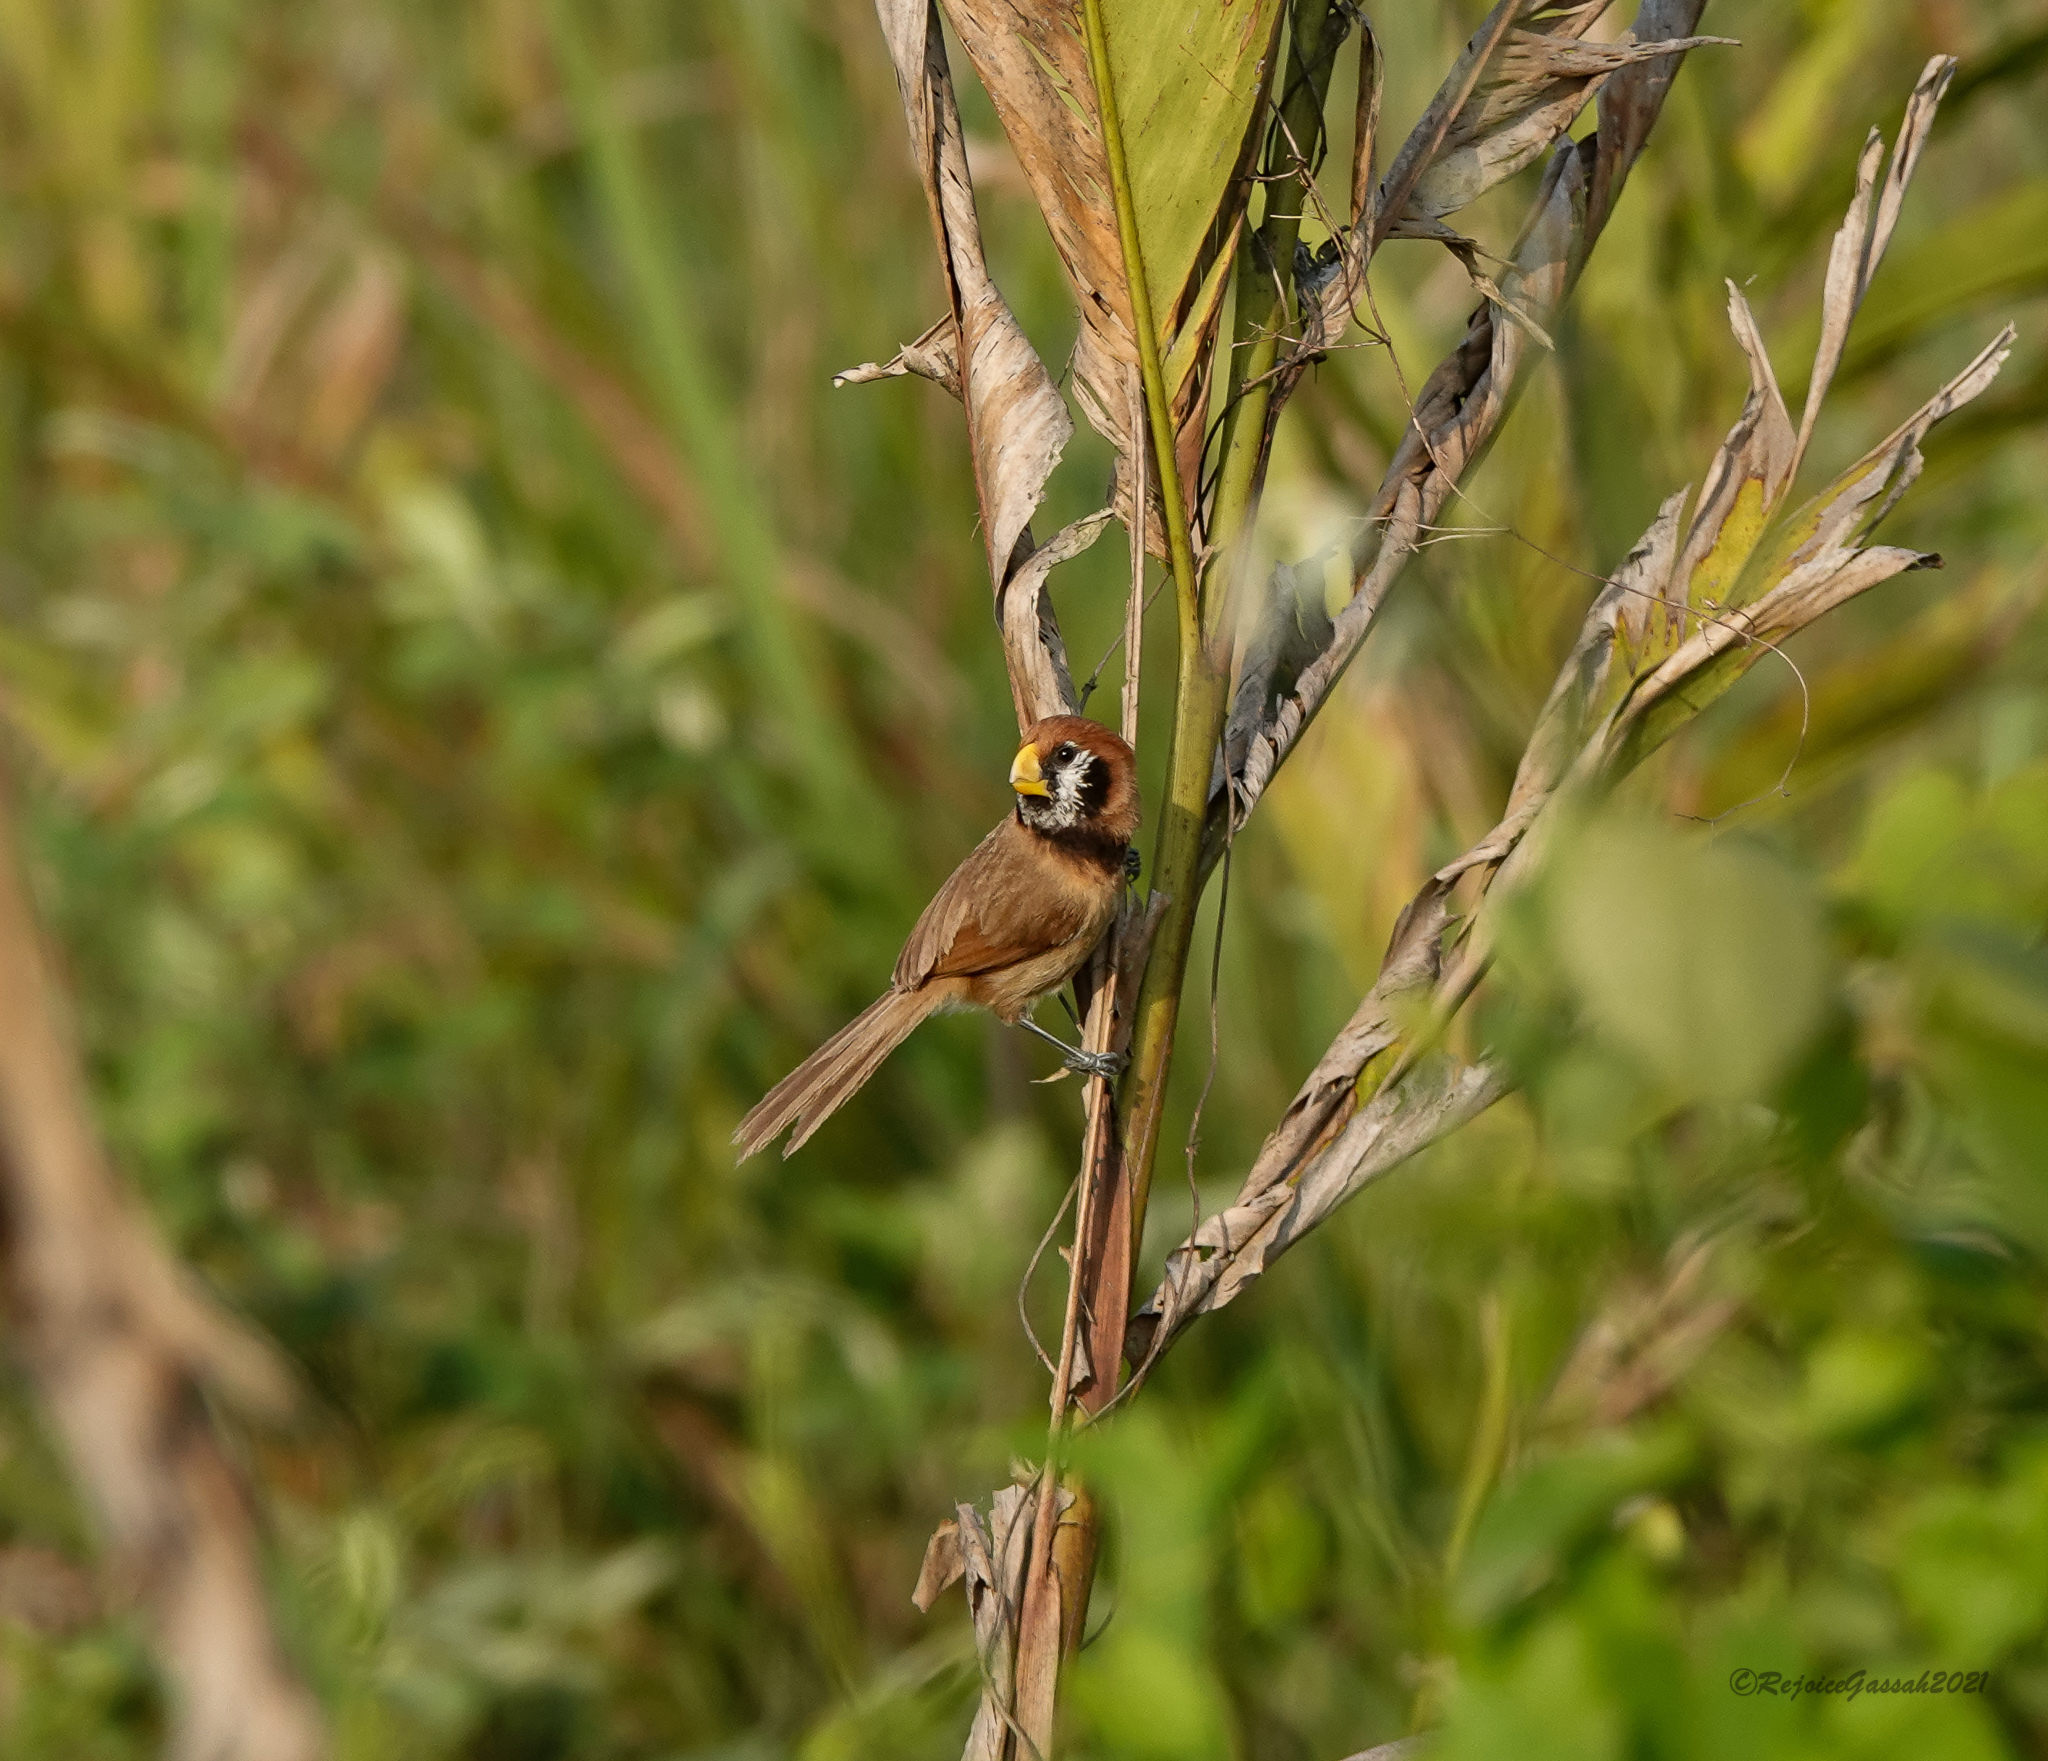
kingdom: Animalia
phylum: Chordata
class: Aves
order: Passeriformes
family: Sylviidae
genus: Paradoxornis
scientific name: Paradoxornis flavirostris
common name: Black-breasted parrotbill
